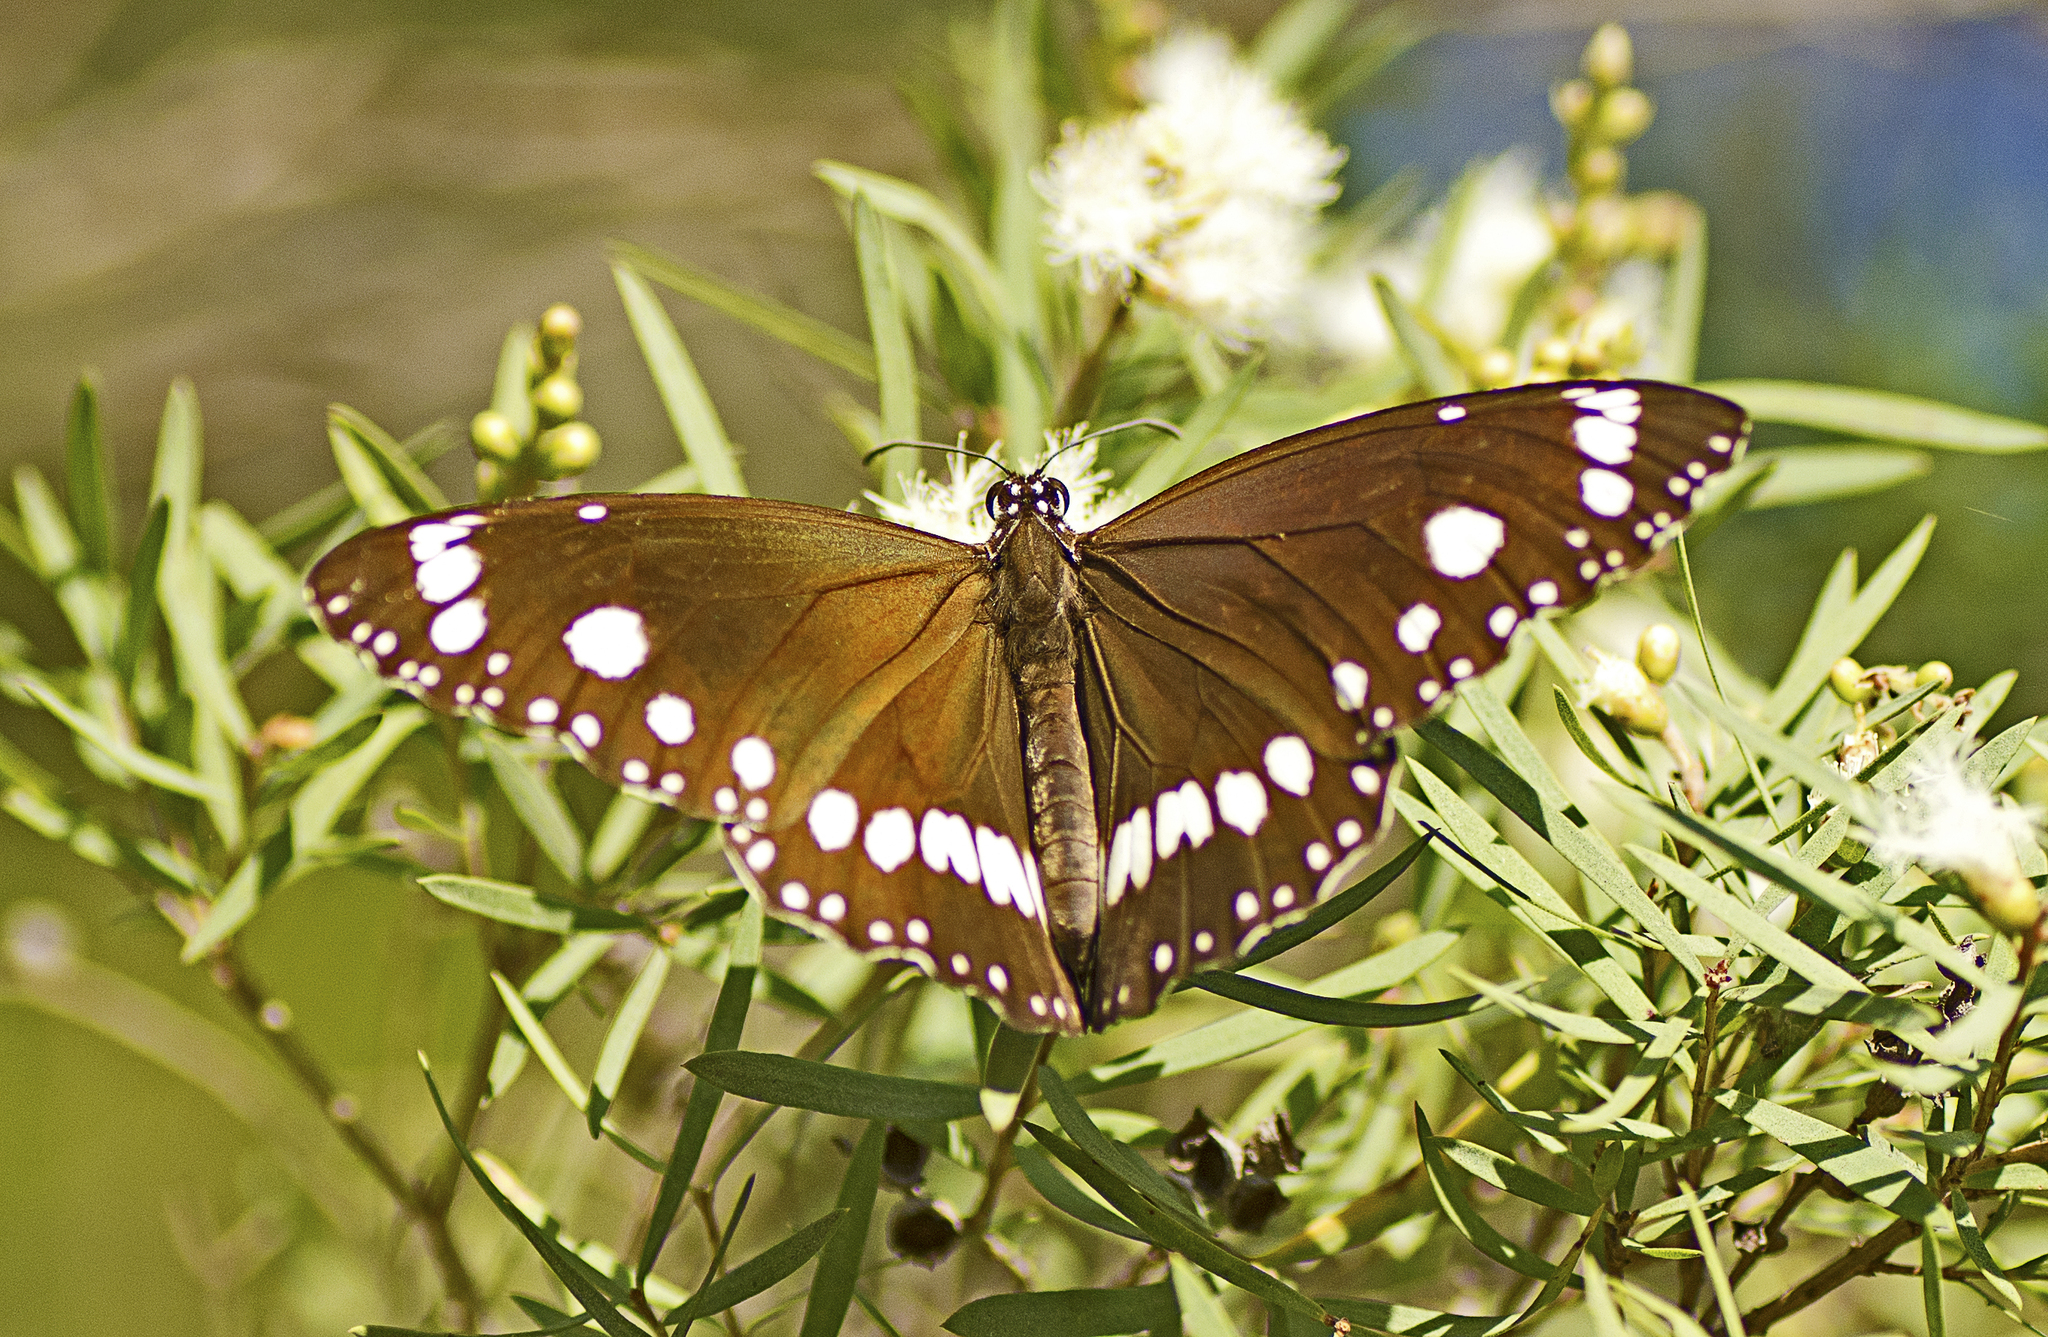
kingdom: Animalia
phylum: Arthropoda
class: Insecta
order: Lepidoptera
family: Nymphalidae
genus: Euploea
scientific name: Euploea core
